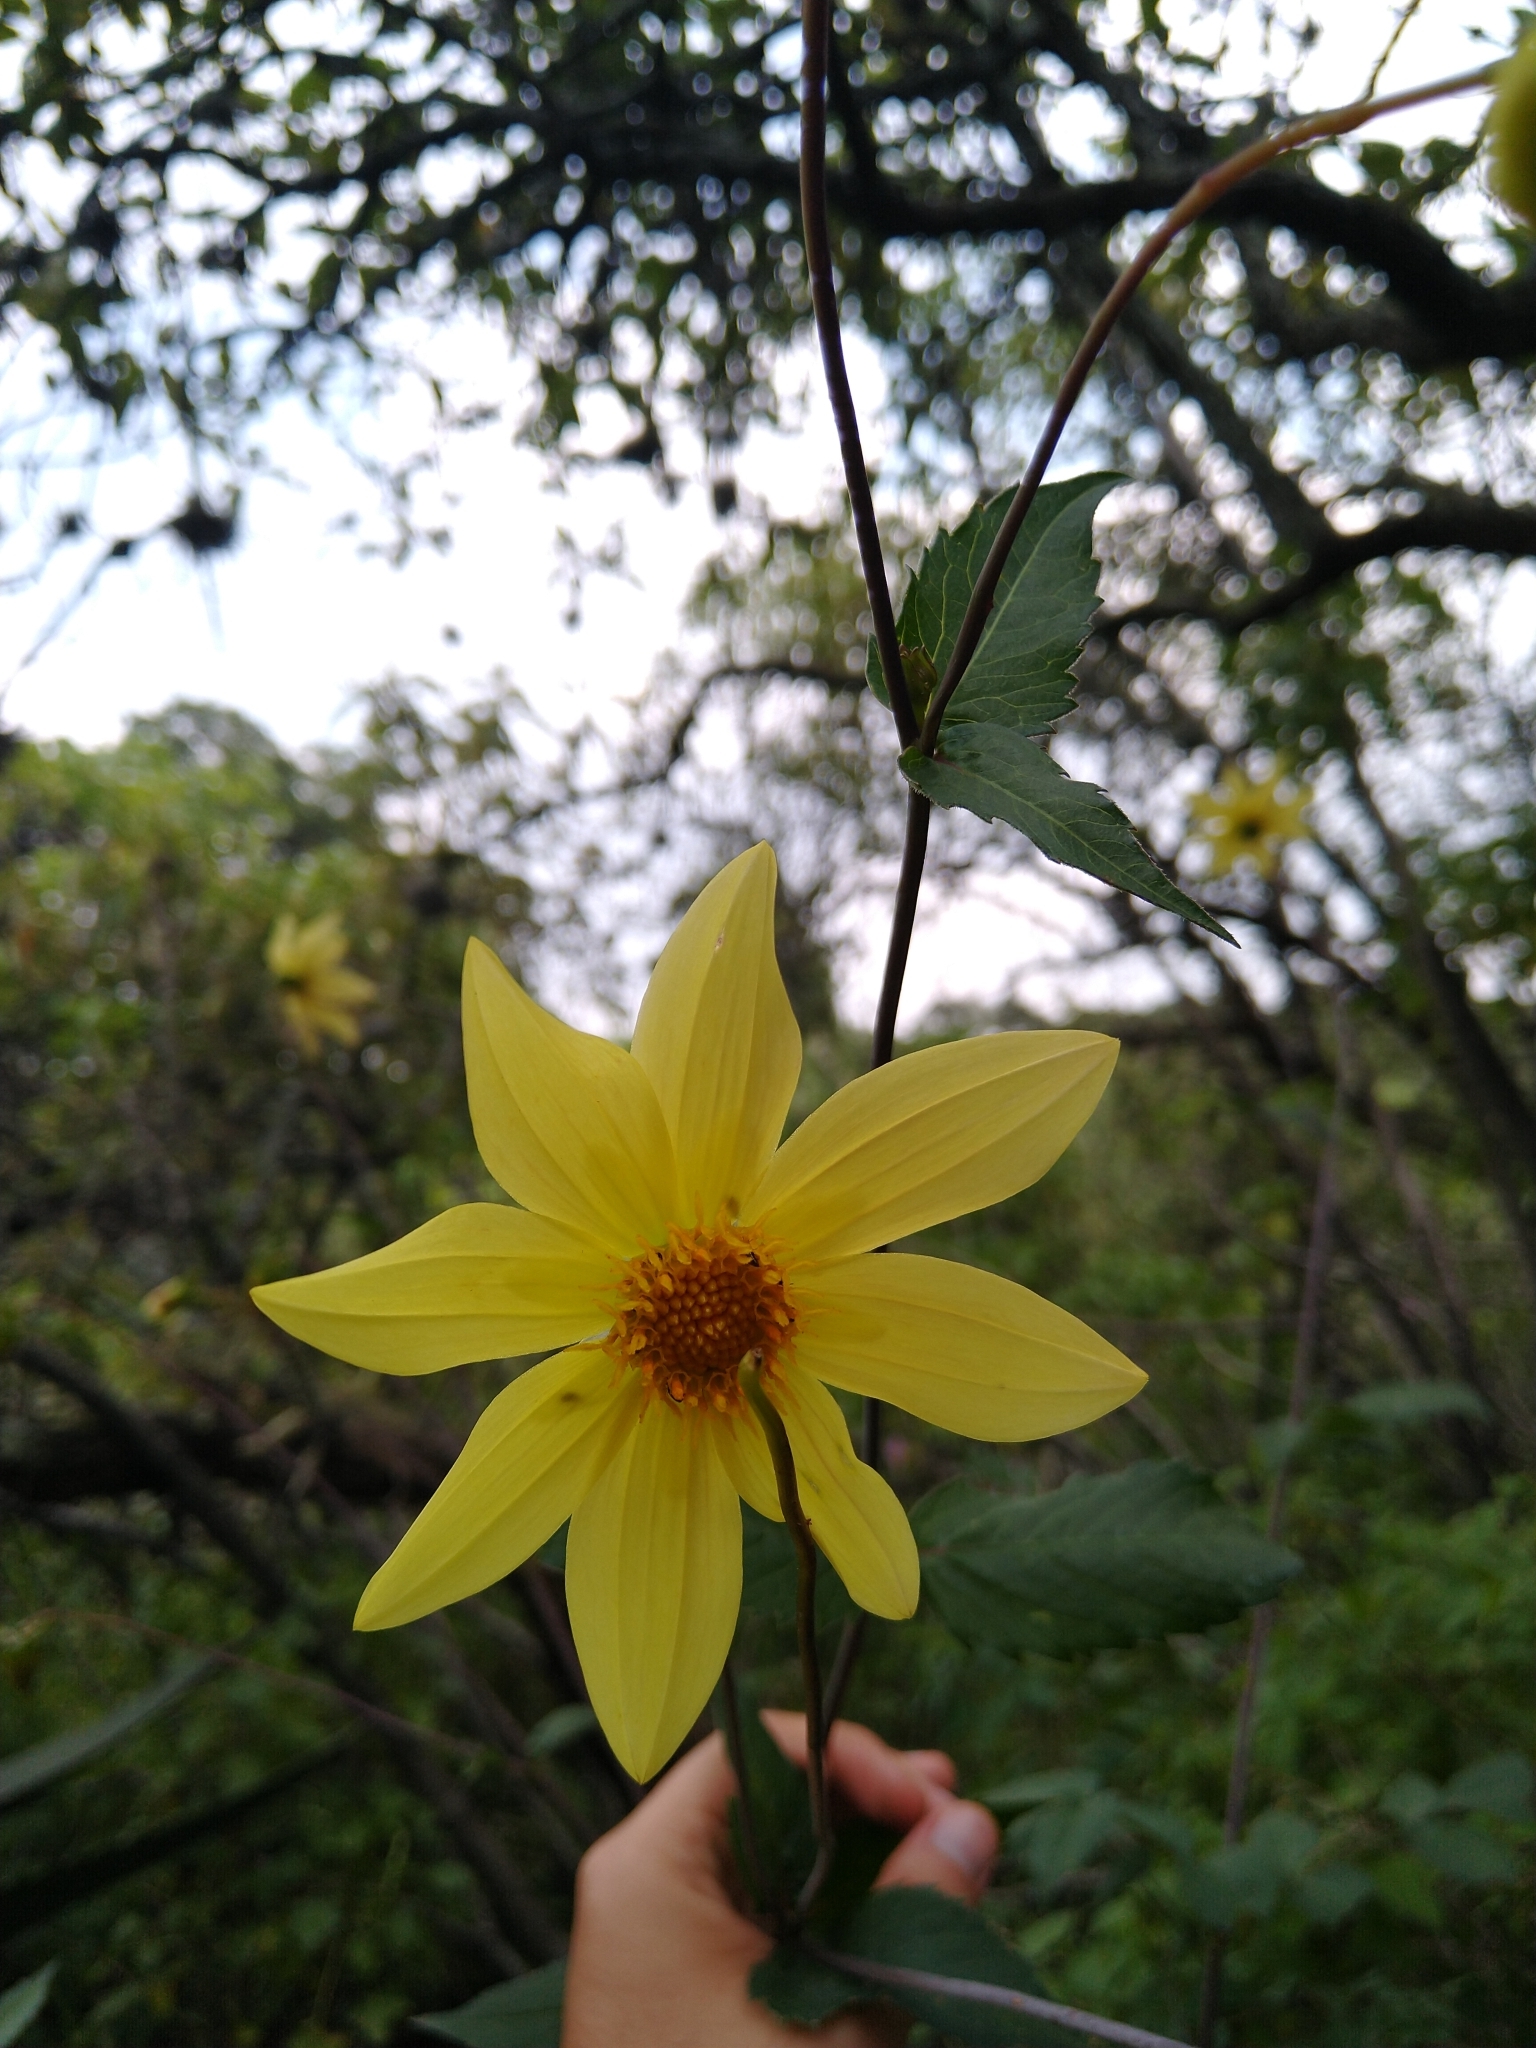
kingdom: Plantae
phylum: Tracheophyta
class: Magnoliopsida
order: Asterales
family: Asteraceae
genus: Dahlia
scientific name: Dahlia coccinea
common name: Red dahlia
